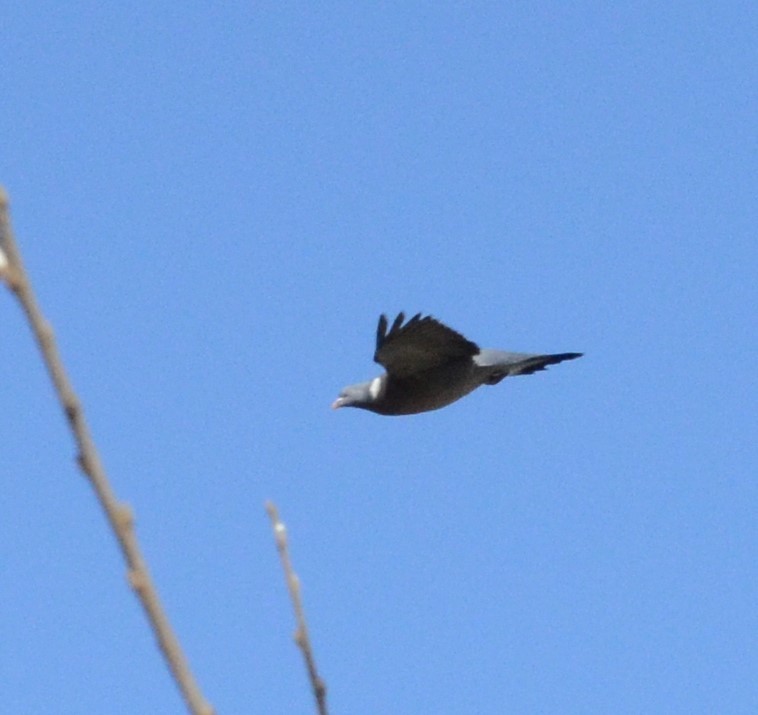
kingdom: Animalia
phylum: Chordata
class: Aves
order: Columbiformes
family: Columbidae
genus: Columba
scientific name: Columba palumbus
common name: Common wood pigeon
